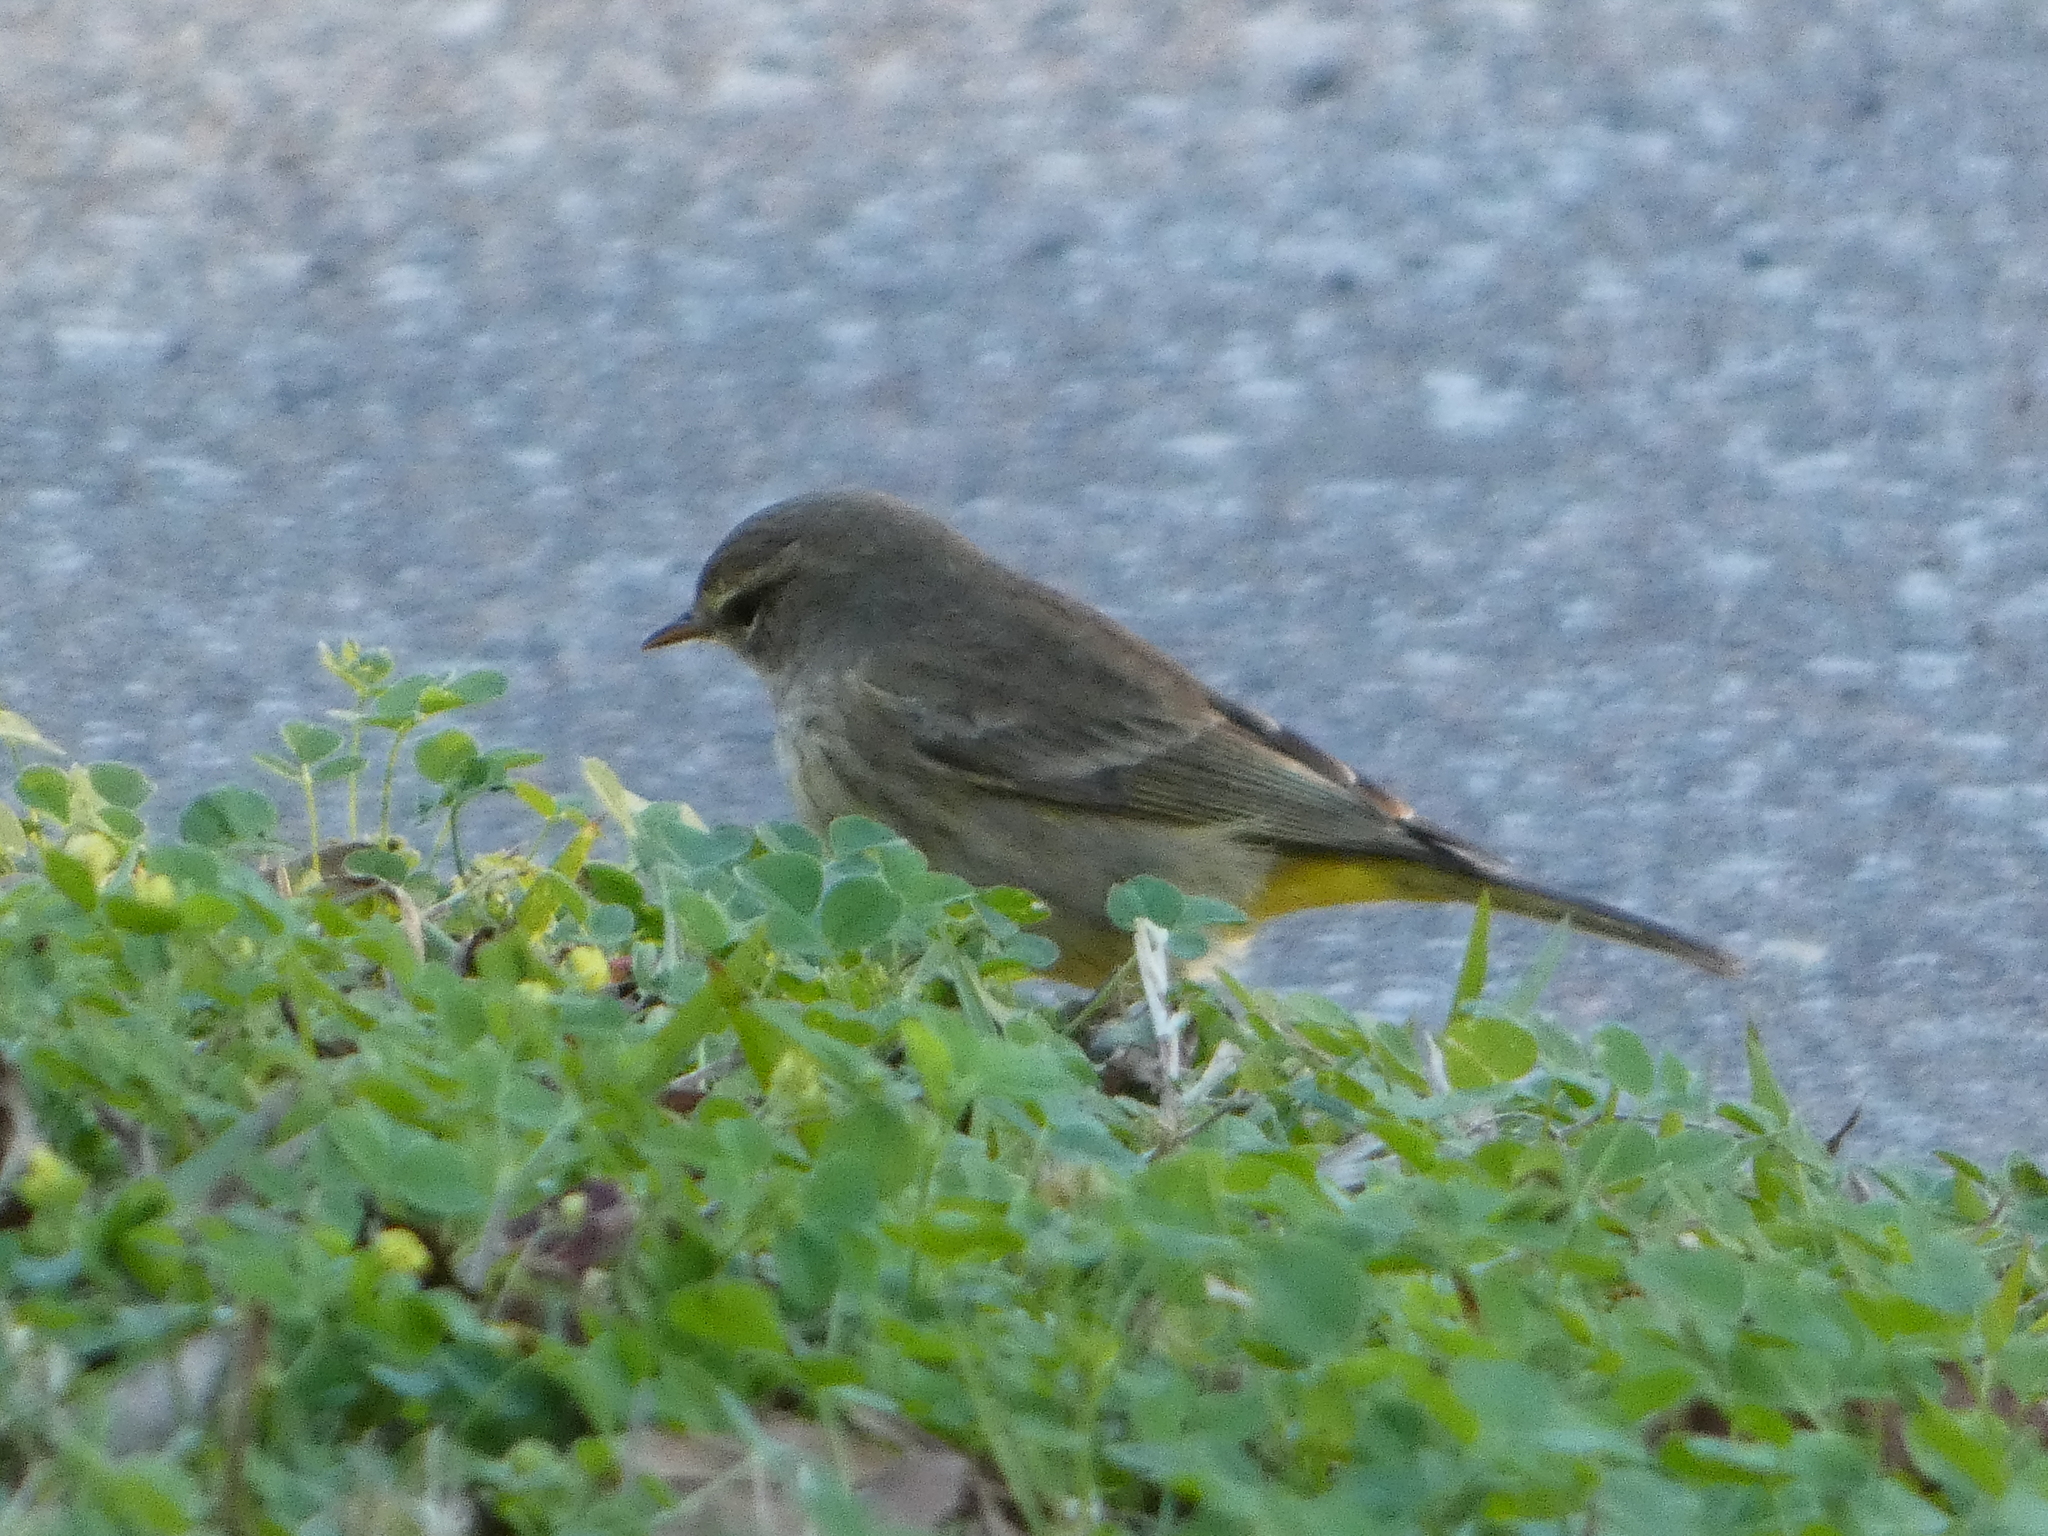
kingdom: Animalia
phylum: Chordata
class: Aves
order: Passeriformes
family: Parulidae
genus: Setophaga
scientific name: Setophaga palmarum
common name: Palm warbler
